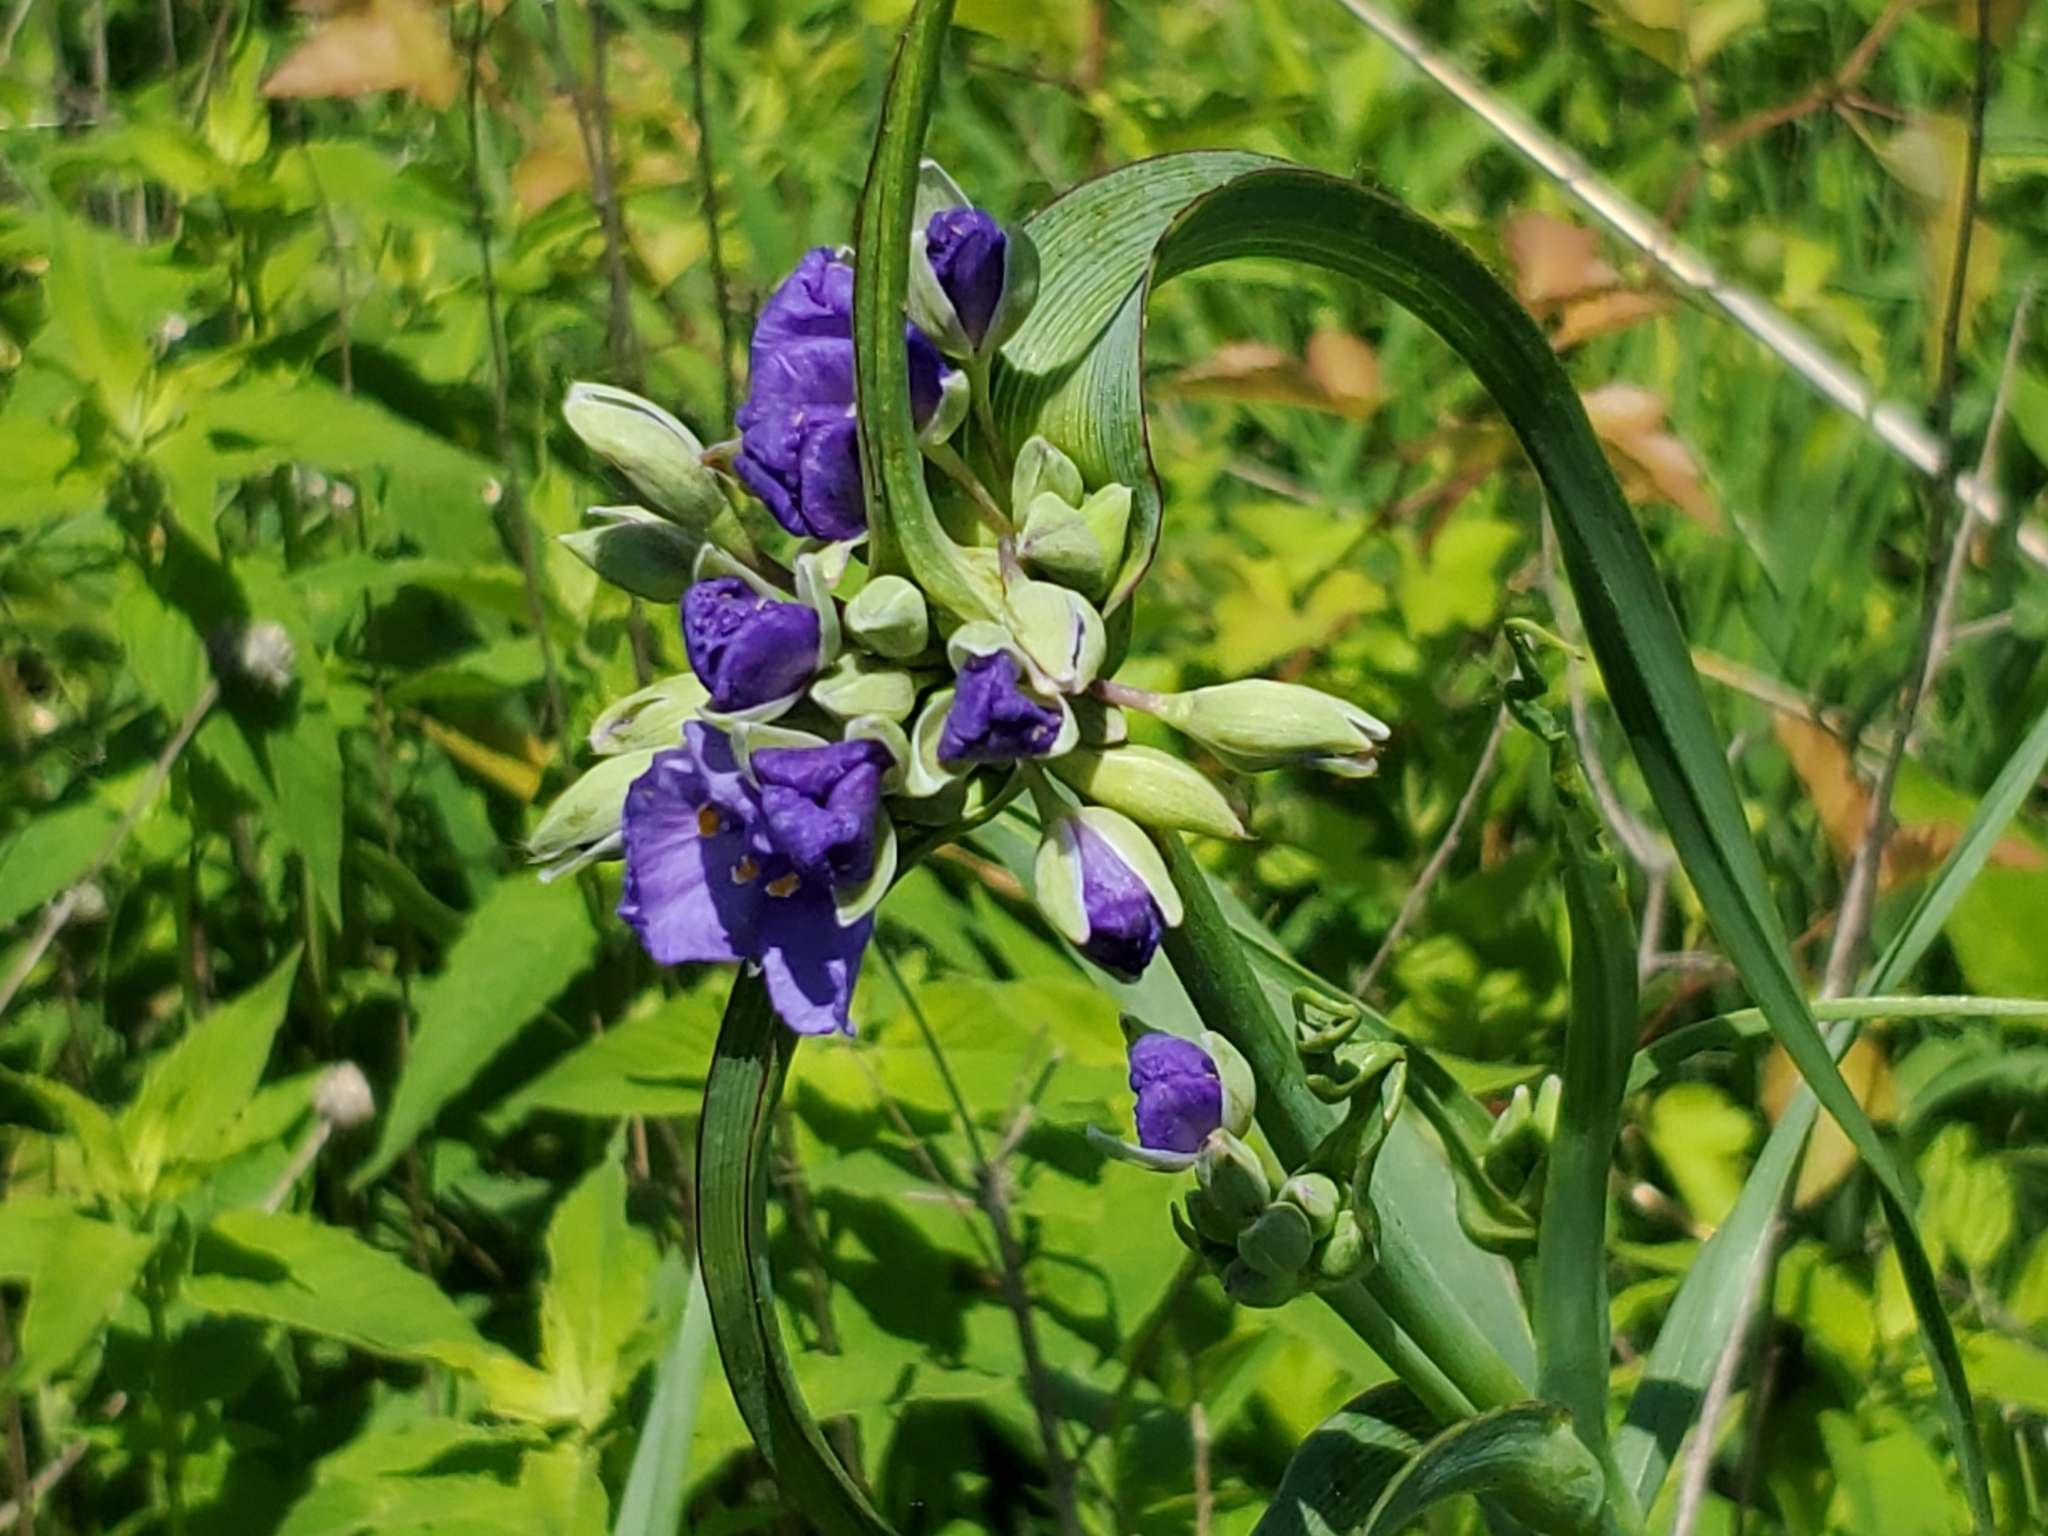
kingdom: Plantae
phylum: Tracheophyta
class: Liliopsida
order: Commelinales
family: Commelinaceae
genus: Tradescantia
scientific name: Tradescantia ohiensis
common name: Ohio spiderwort
